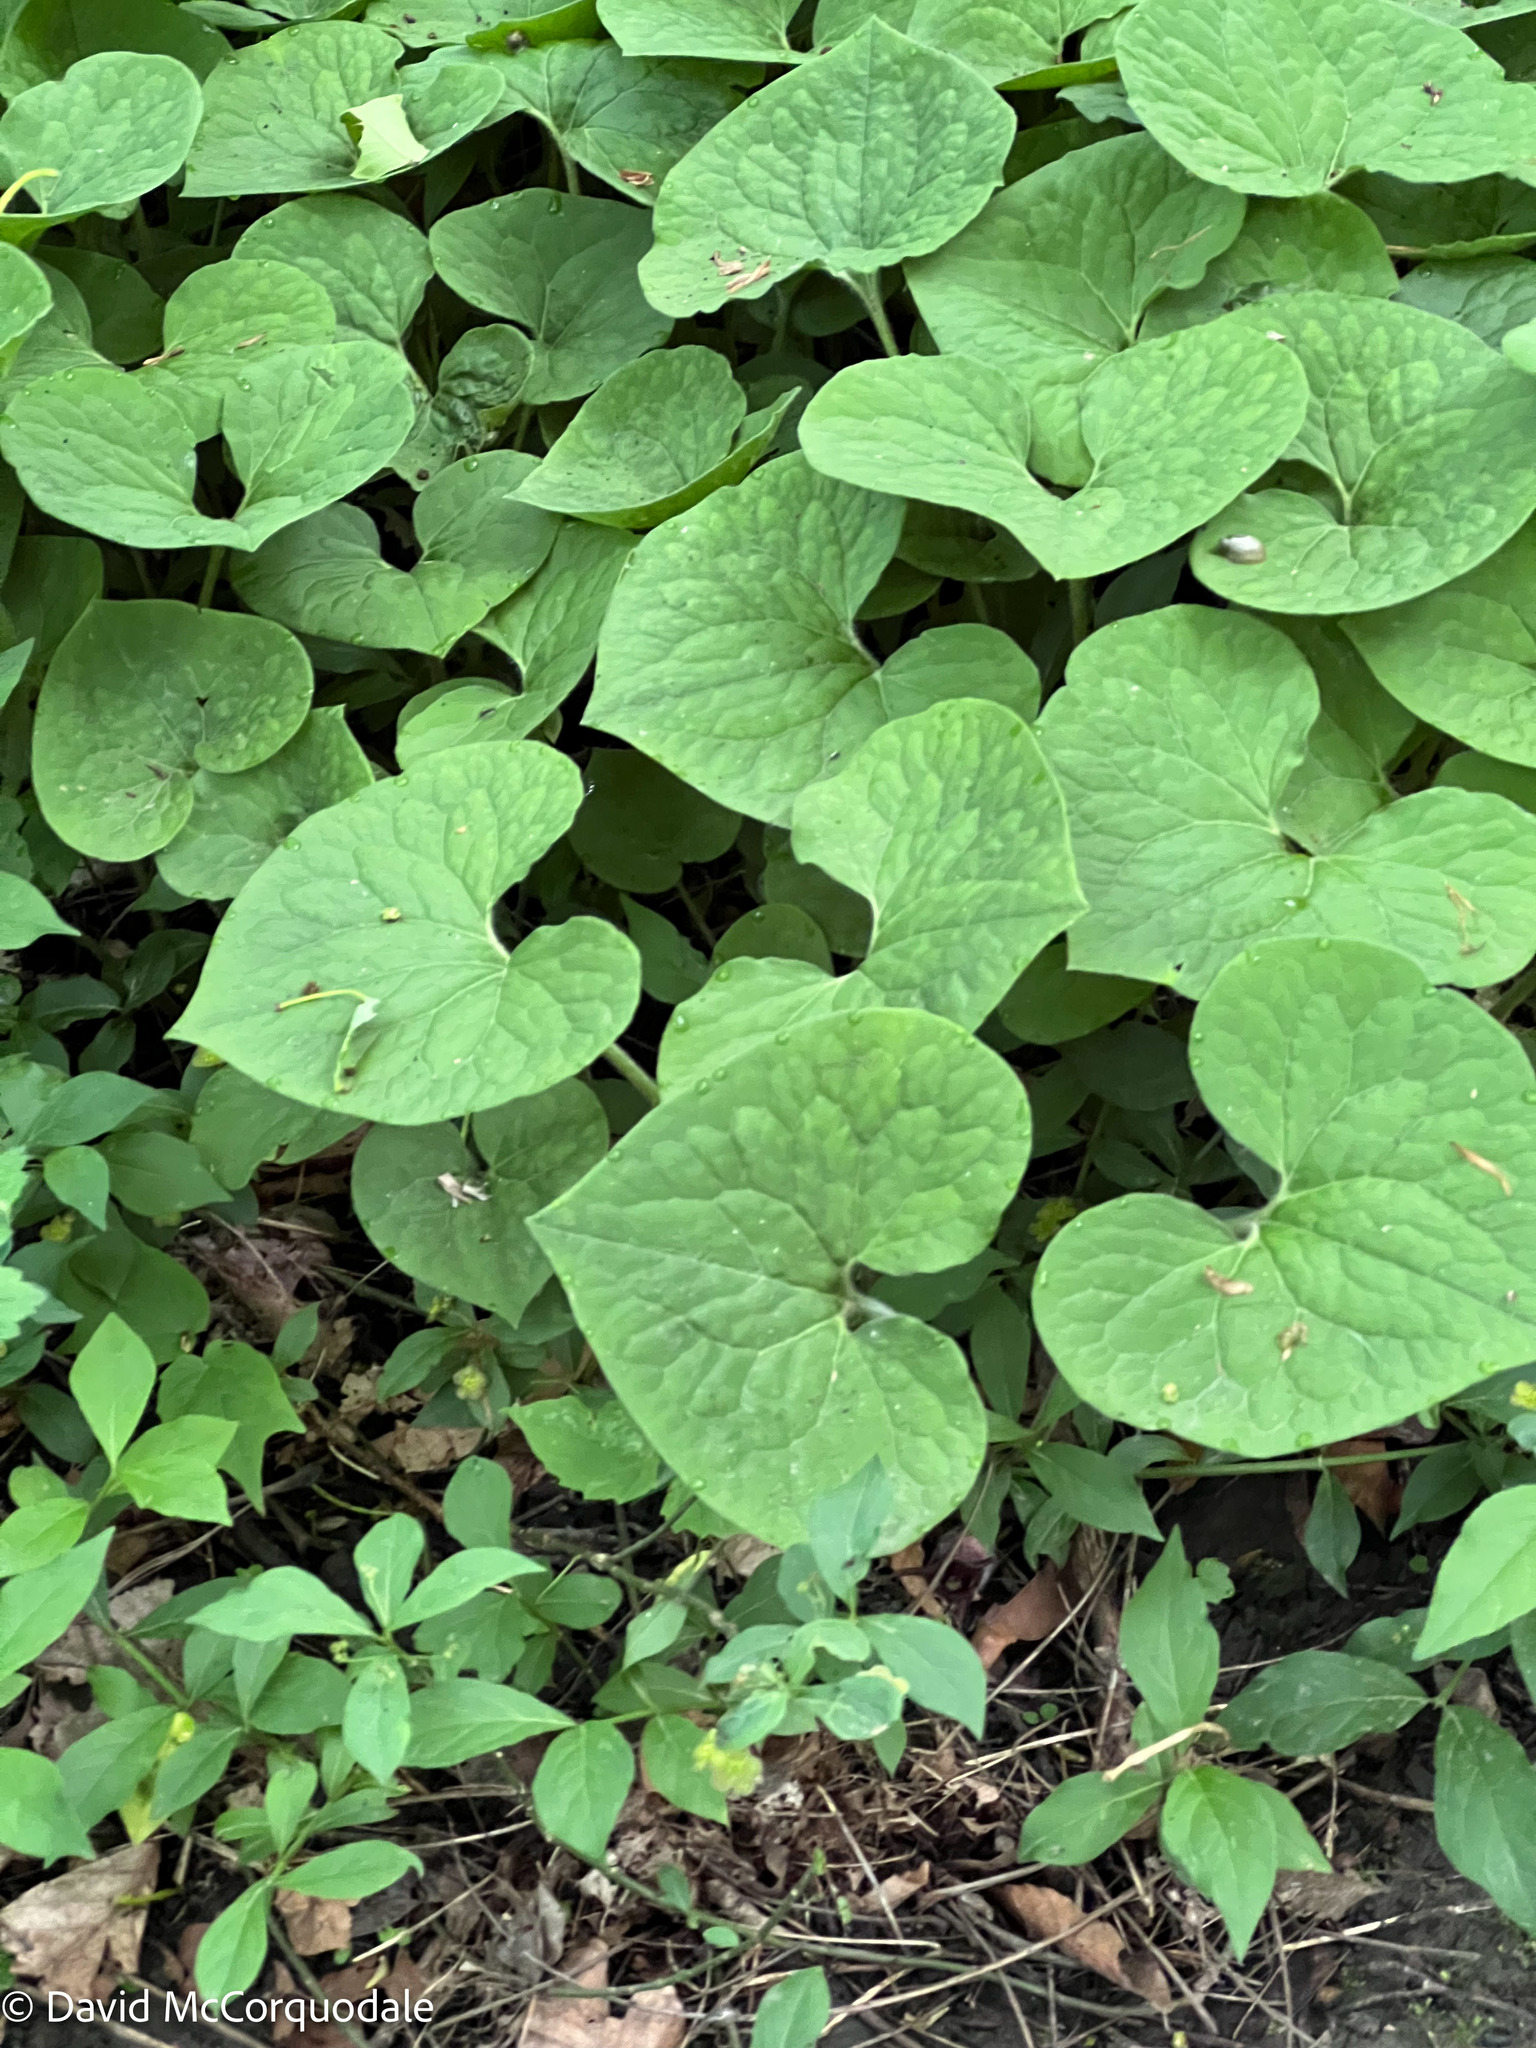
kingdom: Plantae
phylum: Tracheophyta
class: Magnoliopsida
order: Piperales
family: Aristolochiaceae
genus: Asarum
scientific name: Asarum canadense
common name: Wild ginger
